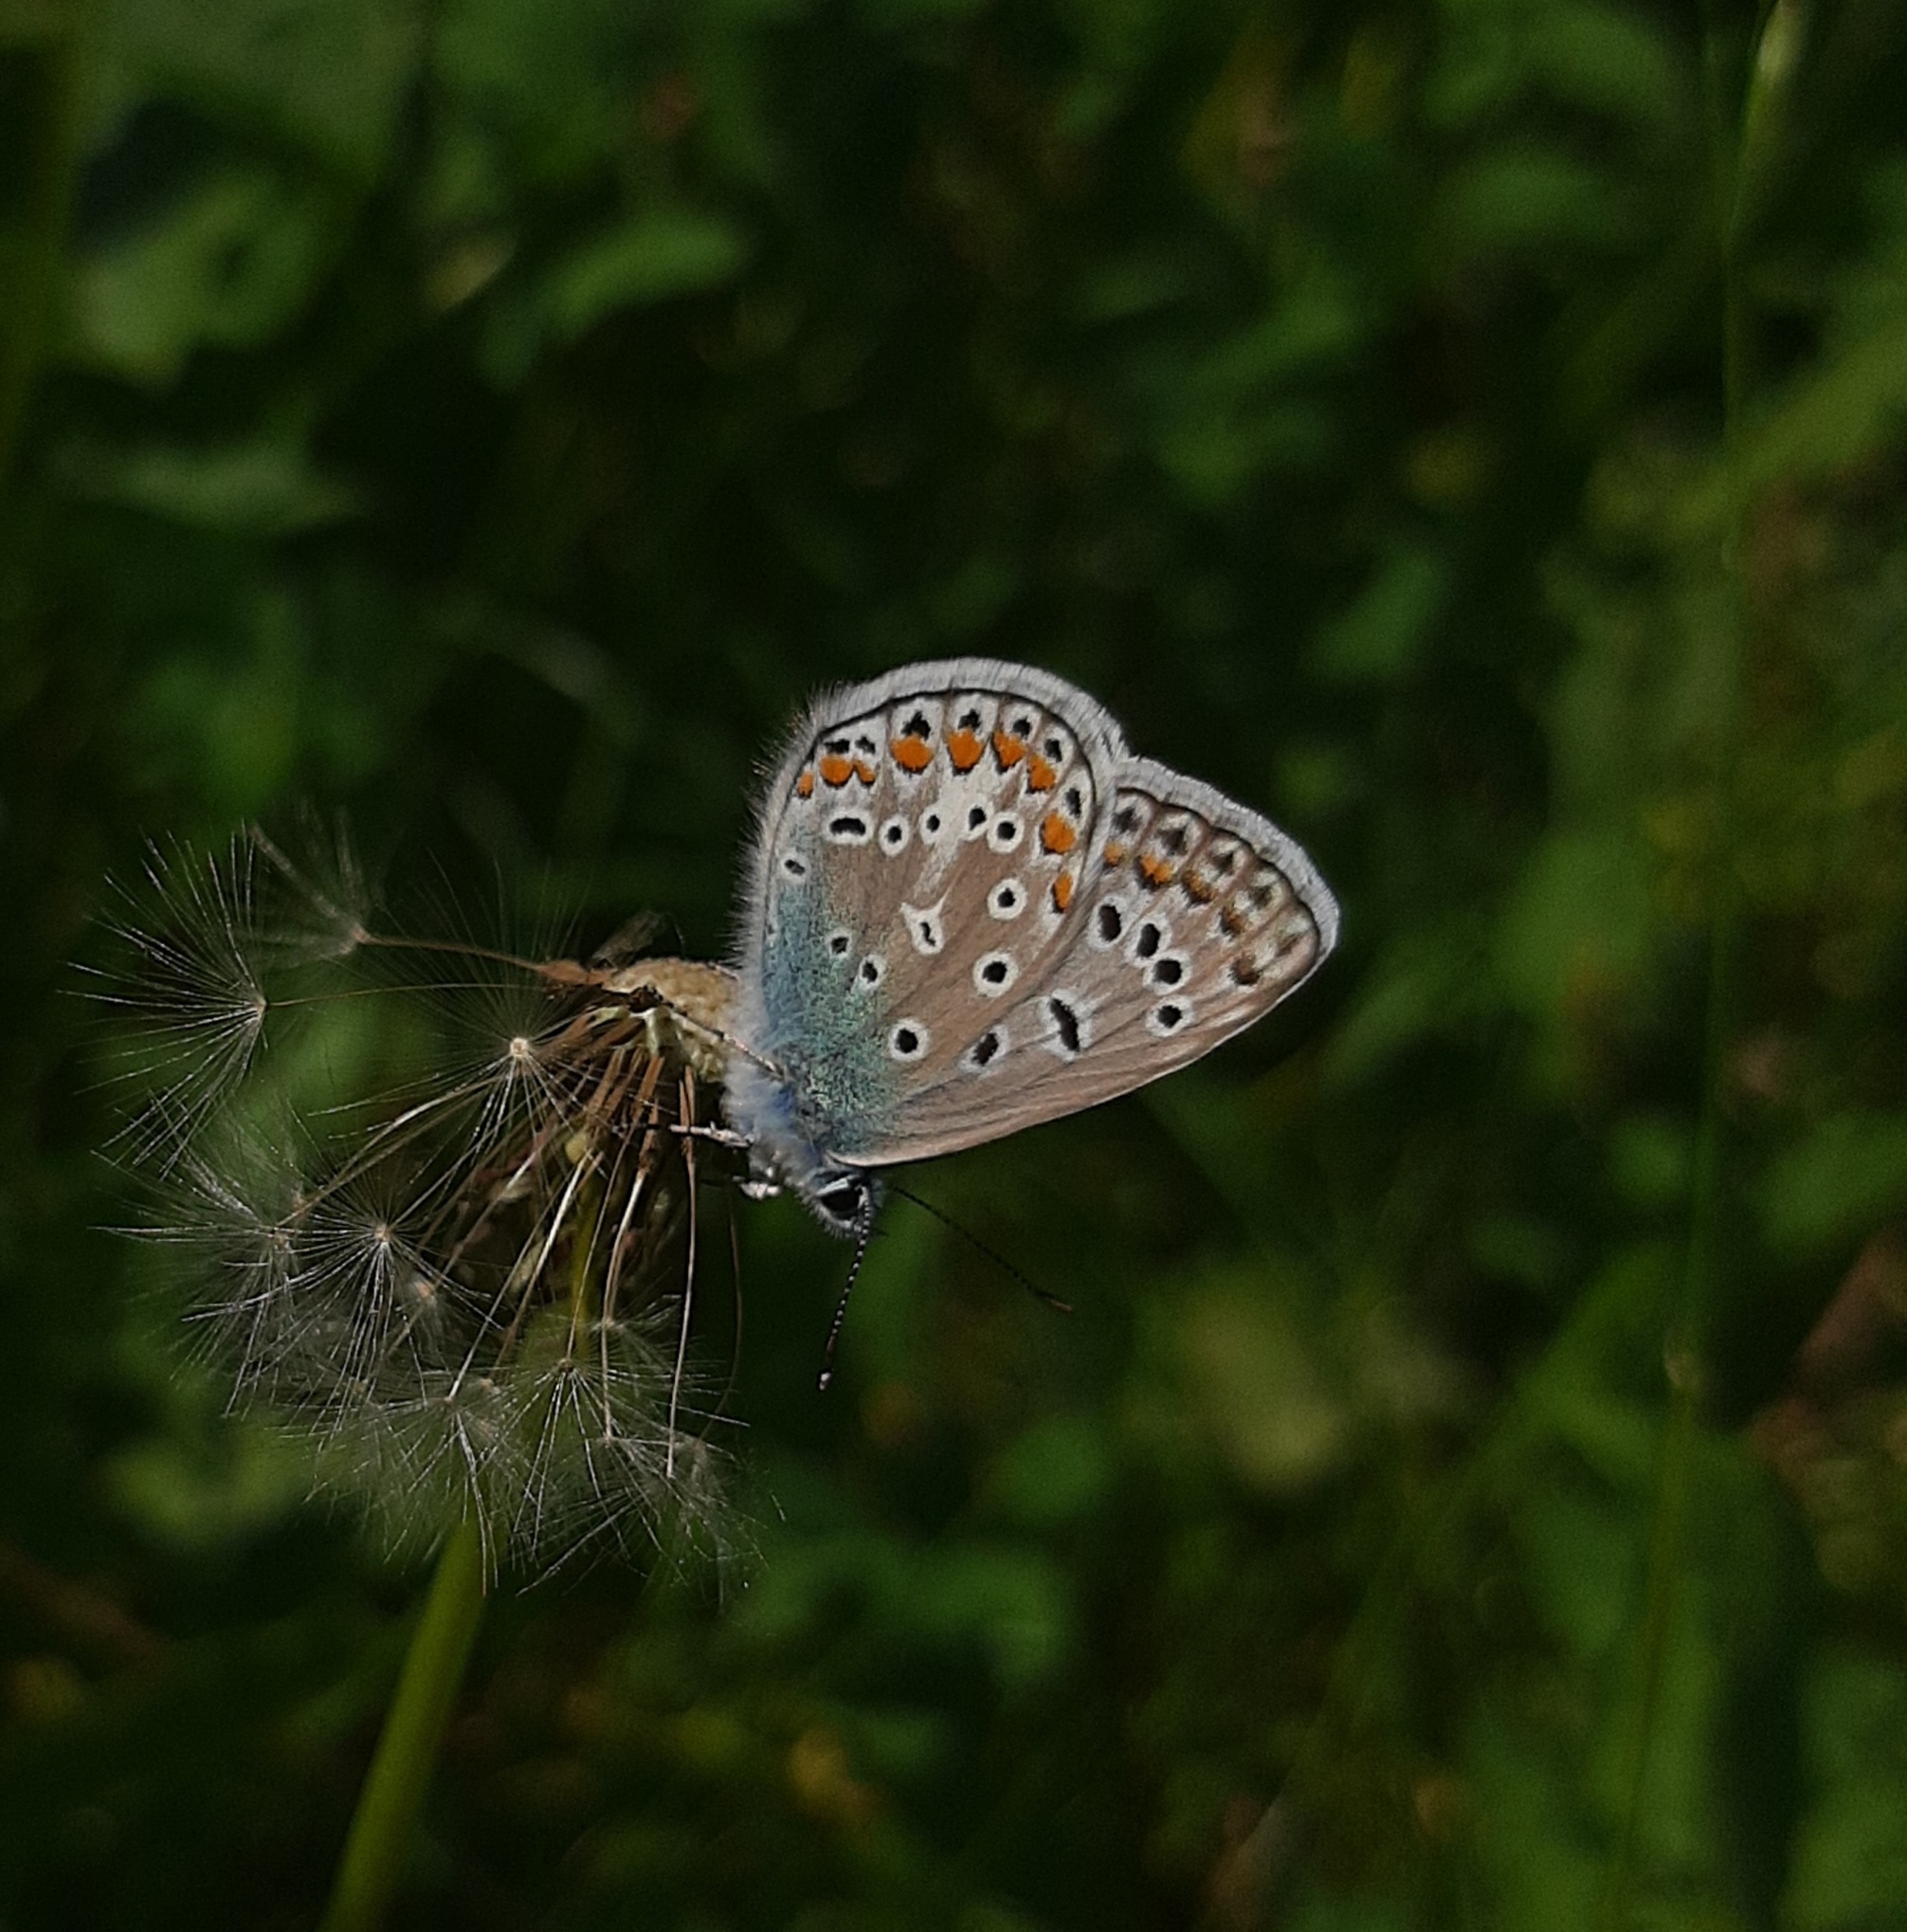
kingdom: Animalia
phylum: Arthropoda
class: Insecta
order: Lepidoptera
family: Lycaenidae
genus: Polyommatus
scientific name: Polyommatus icarus
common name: Common blue
